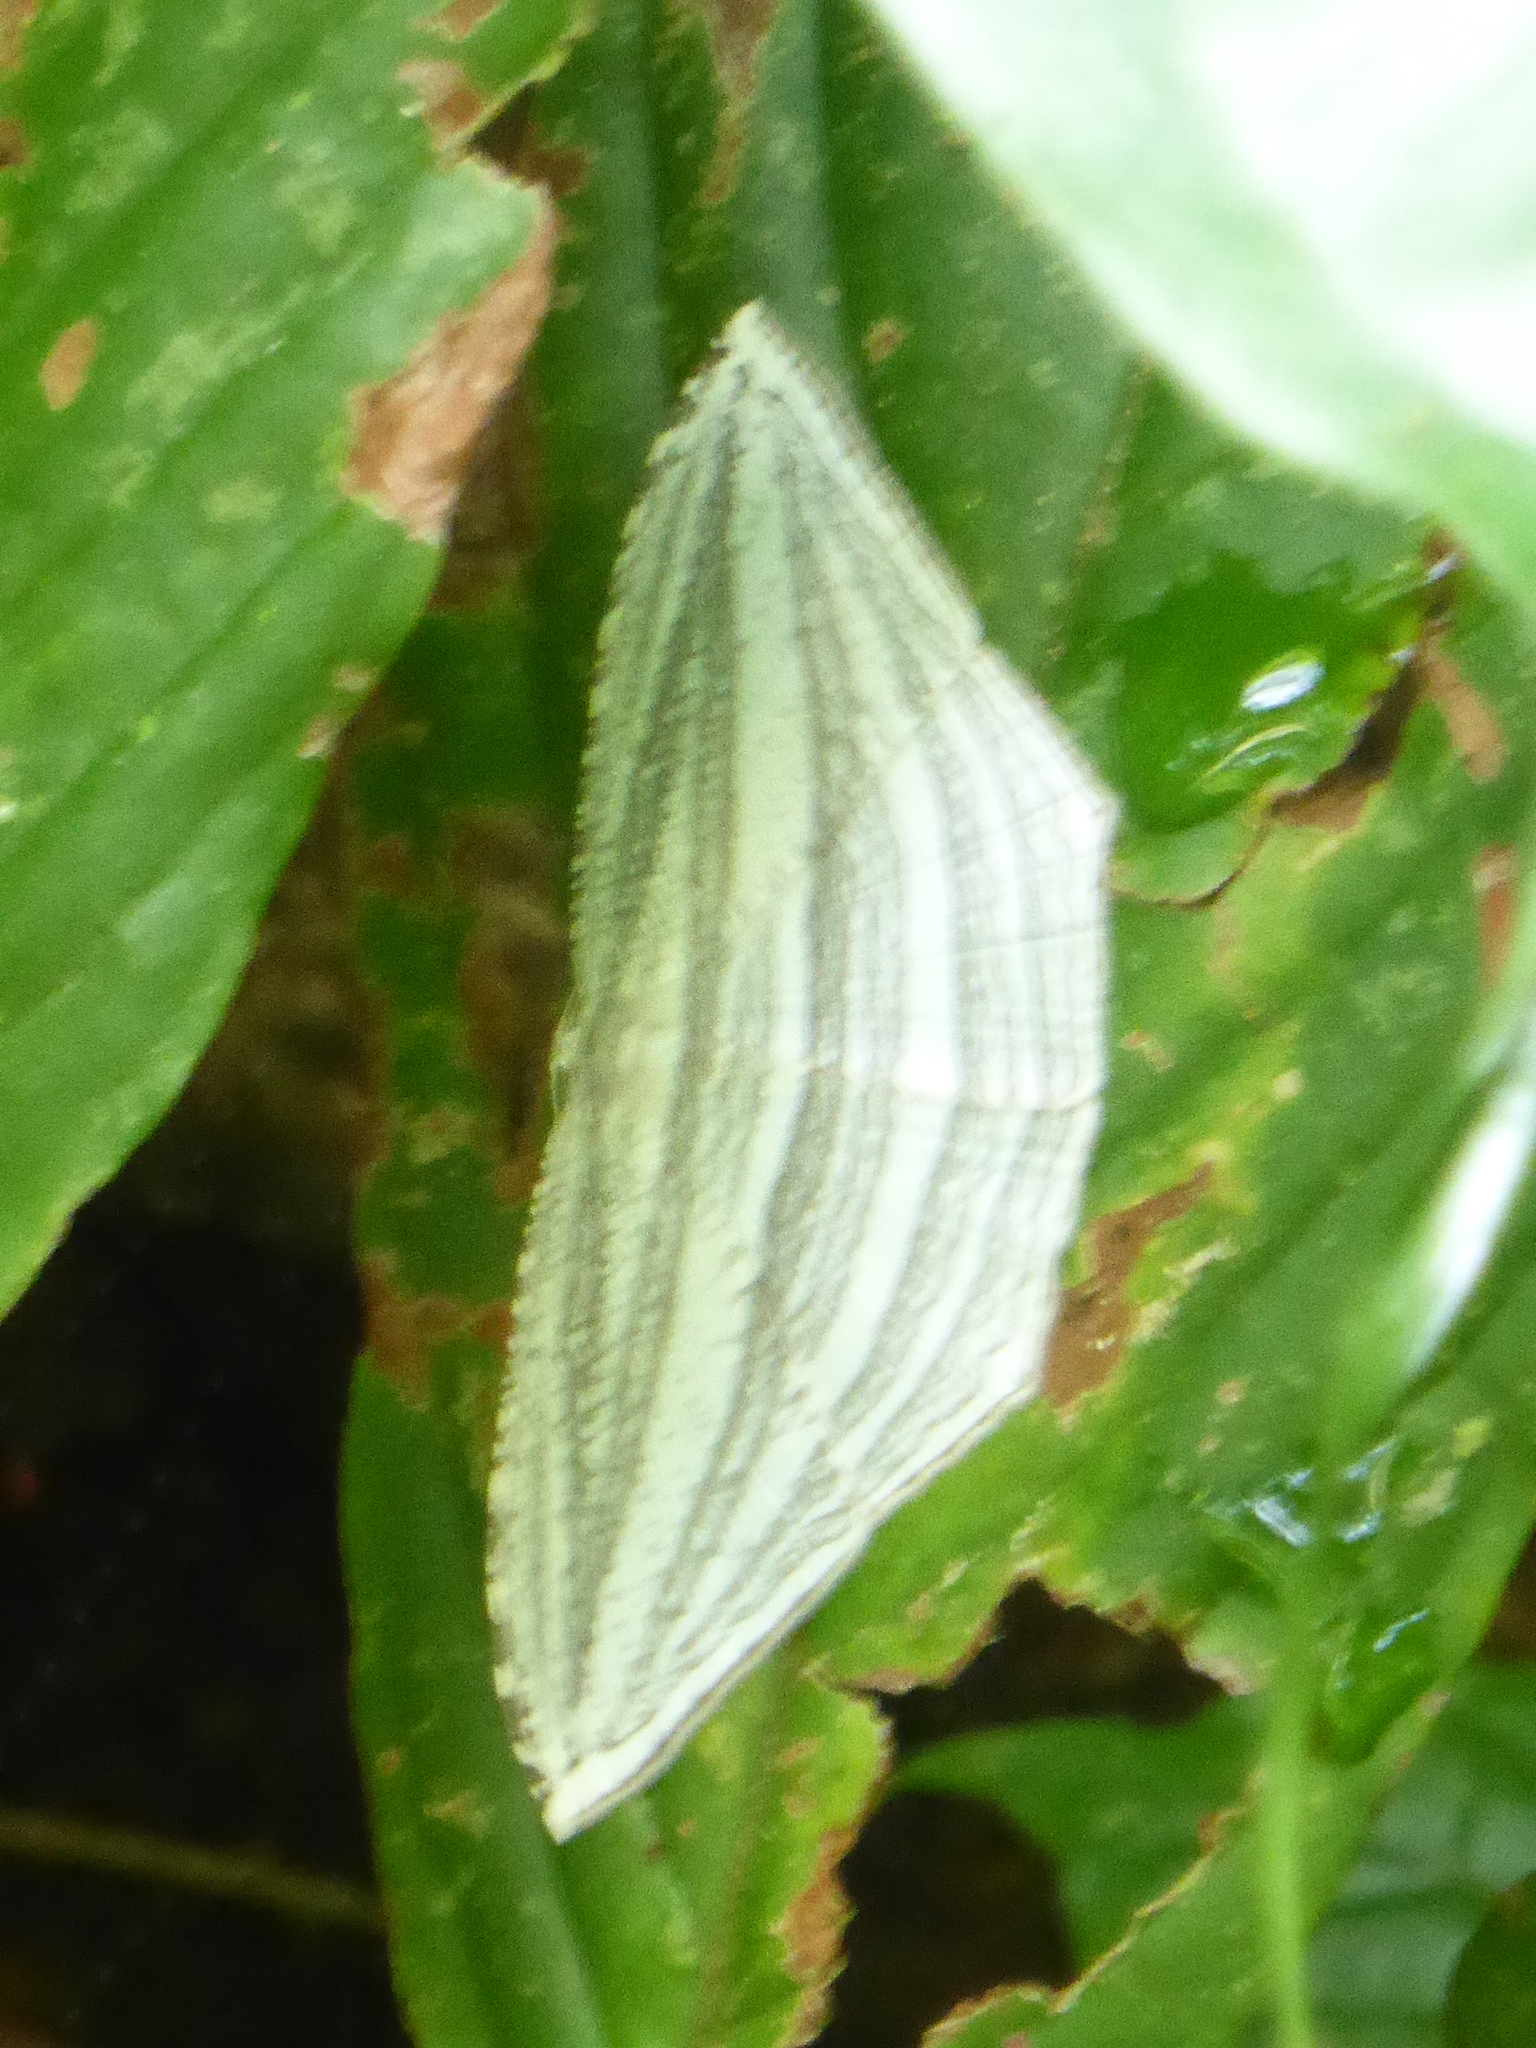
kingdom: Animalia
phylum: Arthropoda
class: Insecta
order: Lepidoptera
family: Uraniidae
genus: Acropteris
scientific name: Acropteris grammearia
